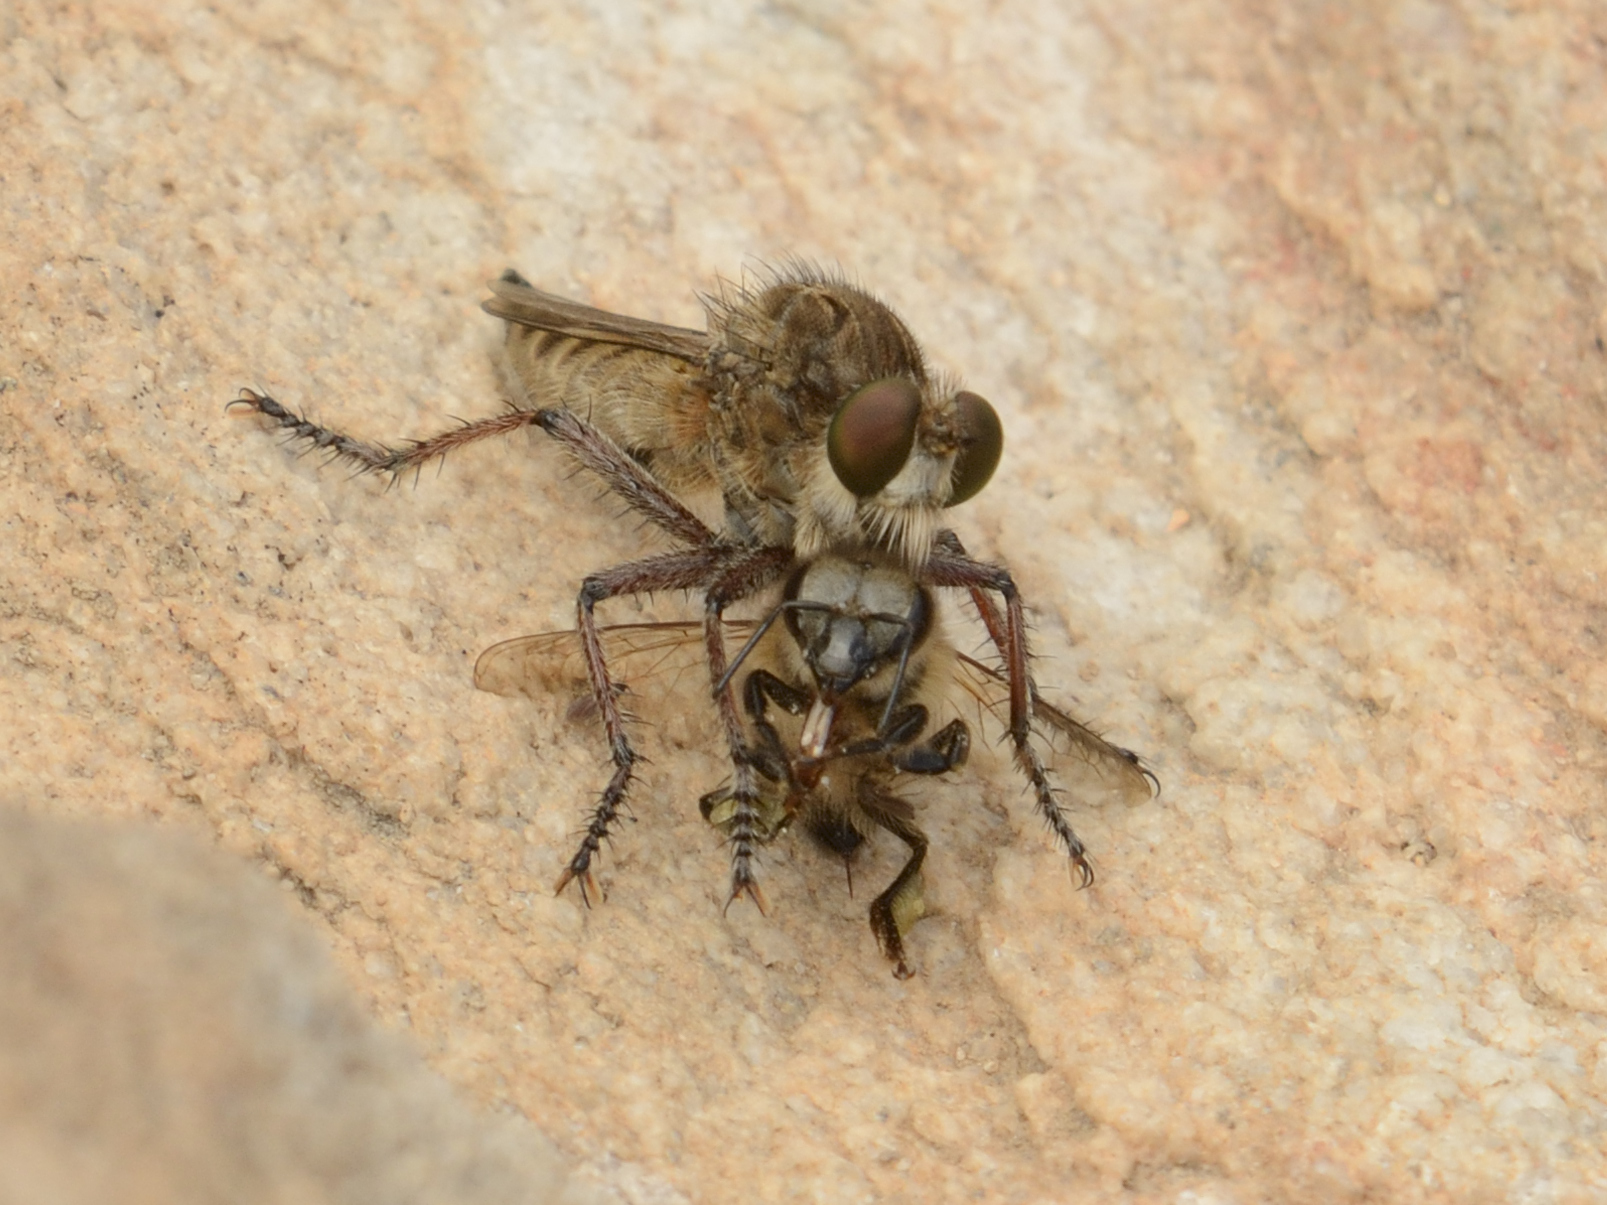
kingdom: Animalia
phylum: Arthropoda
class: Insecta
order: Hymenoptera
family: Apidae
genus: Apis
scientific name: Apis mellifera
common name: Honey bee
